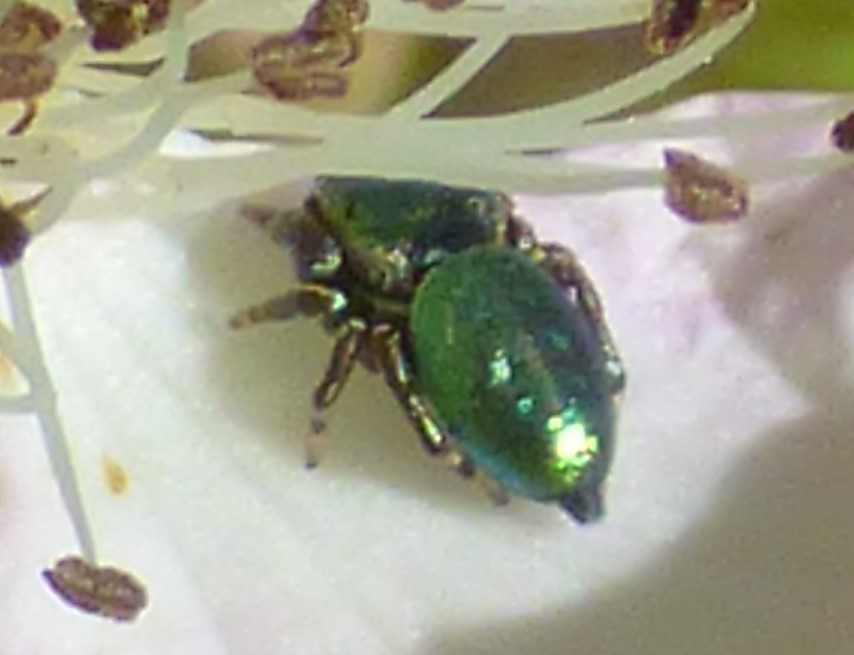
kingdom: Animalia
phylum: Arthropoda
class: Arachnida
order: Araneae
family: Salticidae
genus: Sassacus
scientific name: Sassacus papenhoei
